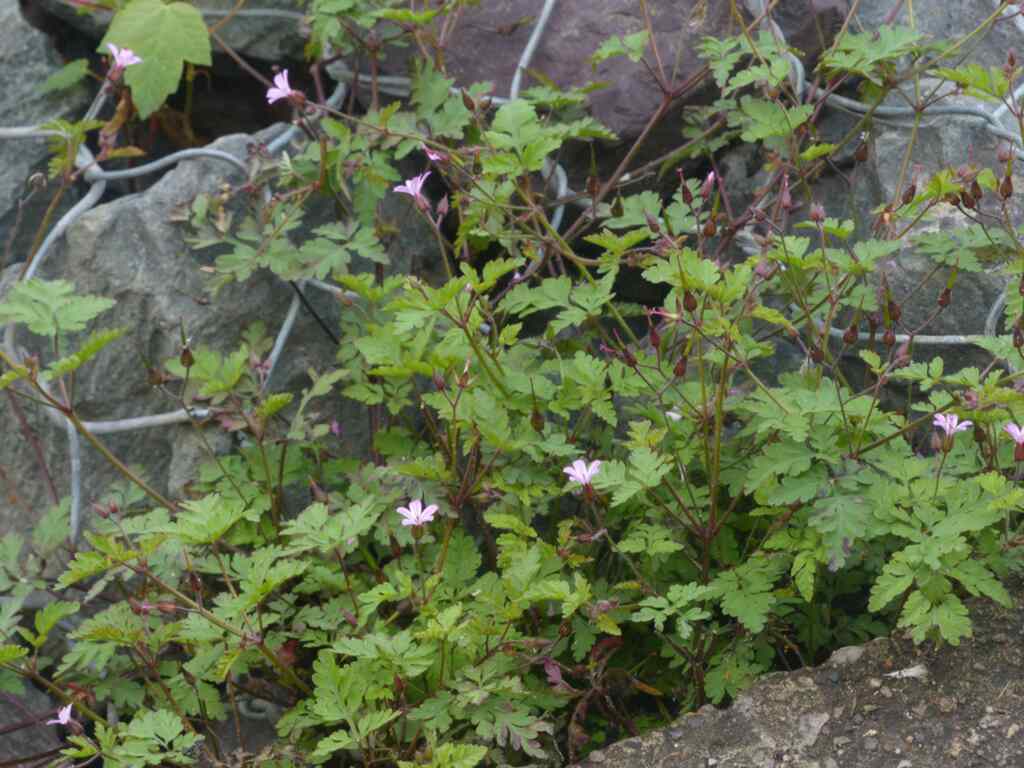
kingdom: Plantae
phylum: Tracheophyta
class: Magnoliopsida
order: Geraniales
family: Geraniaceae
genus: Geranium
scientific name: Geranium robertianum
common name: Herb-robert
